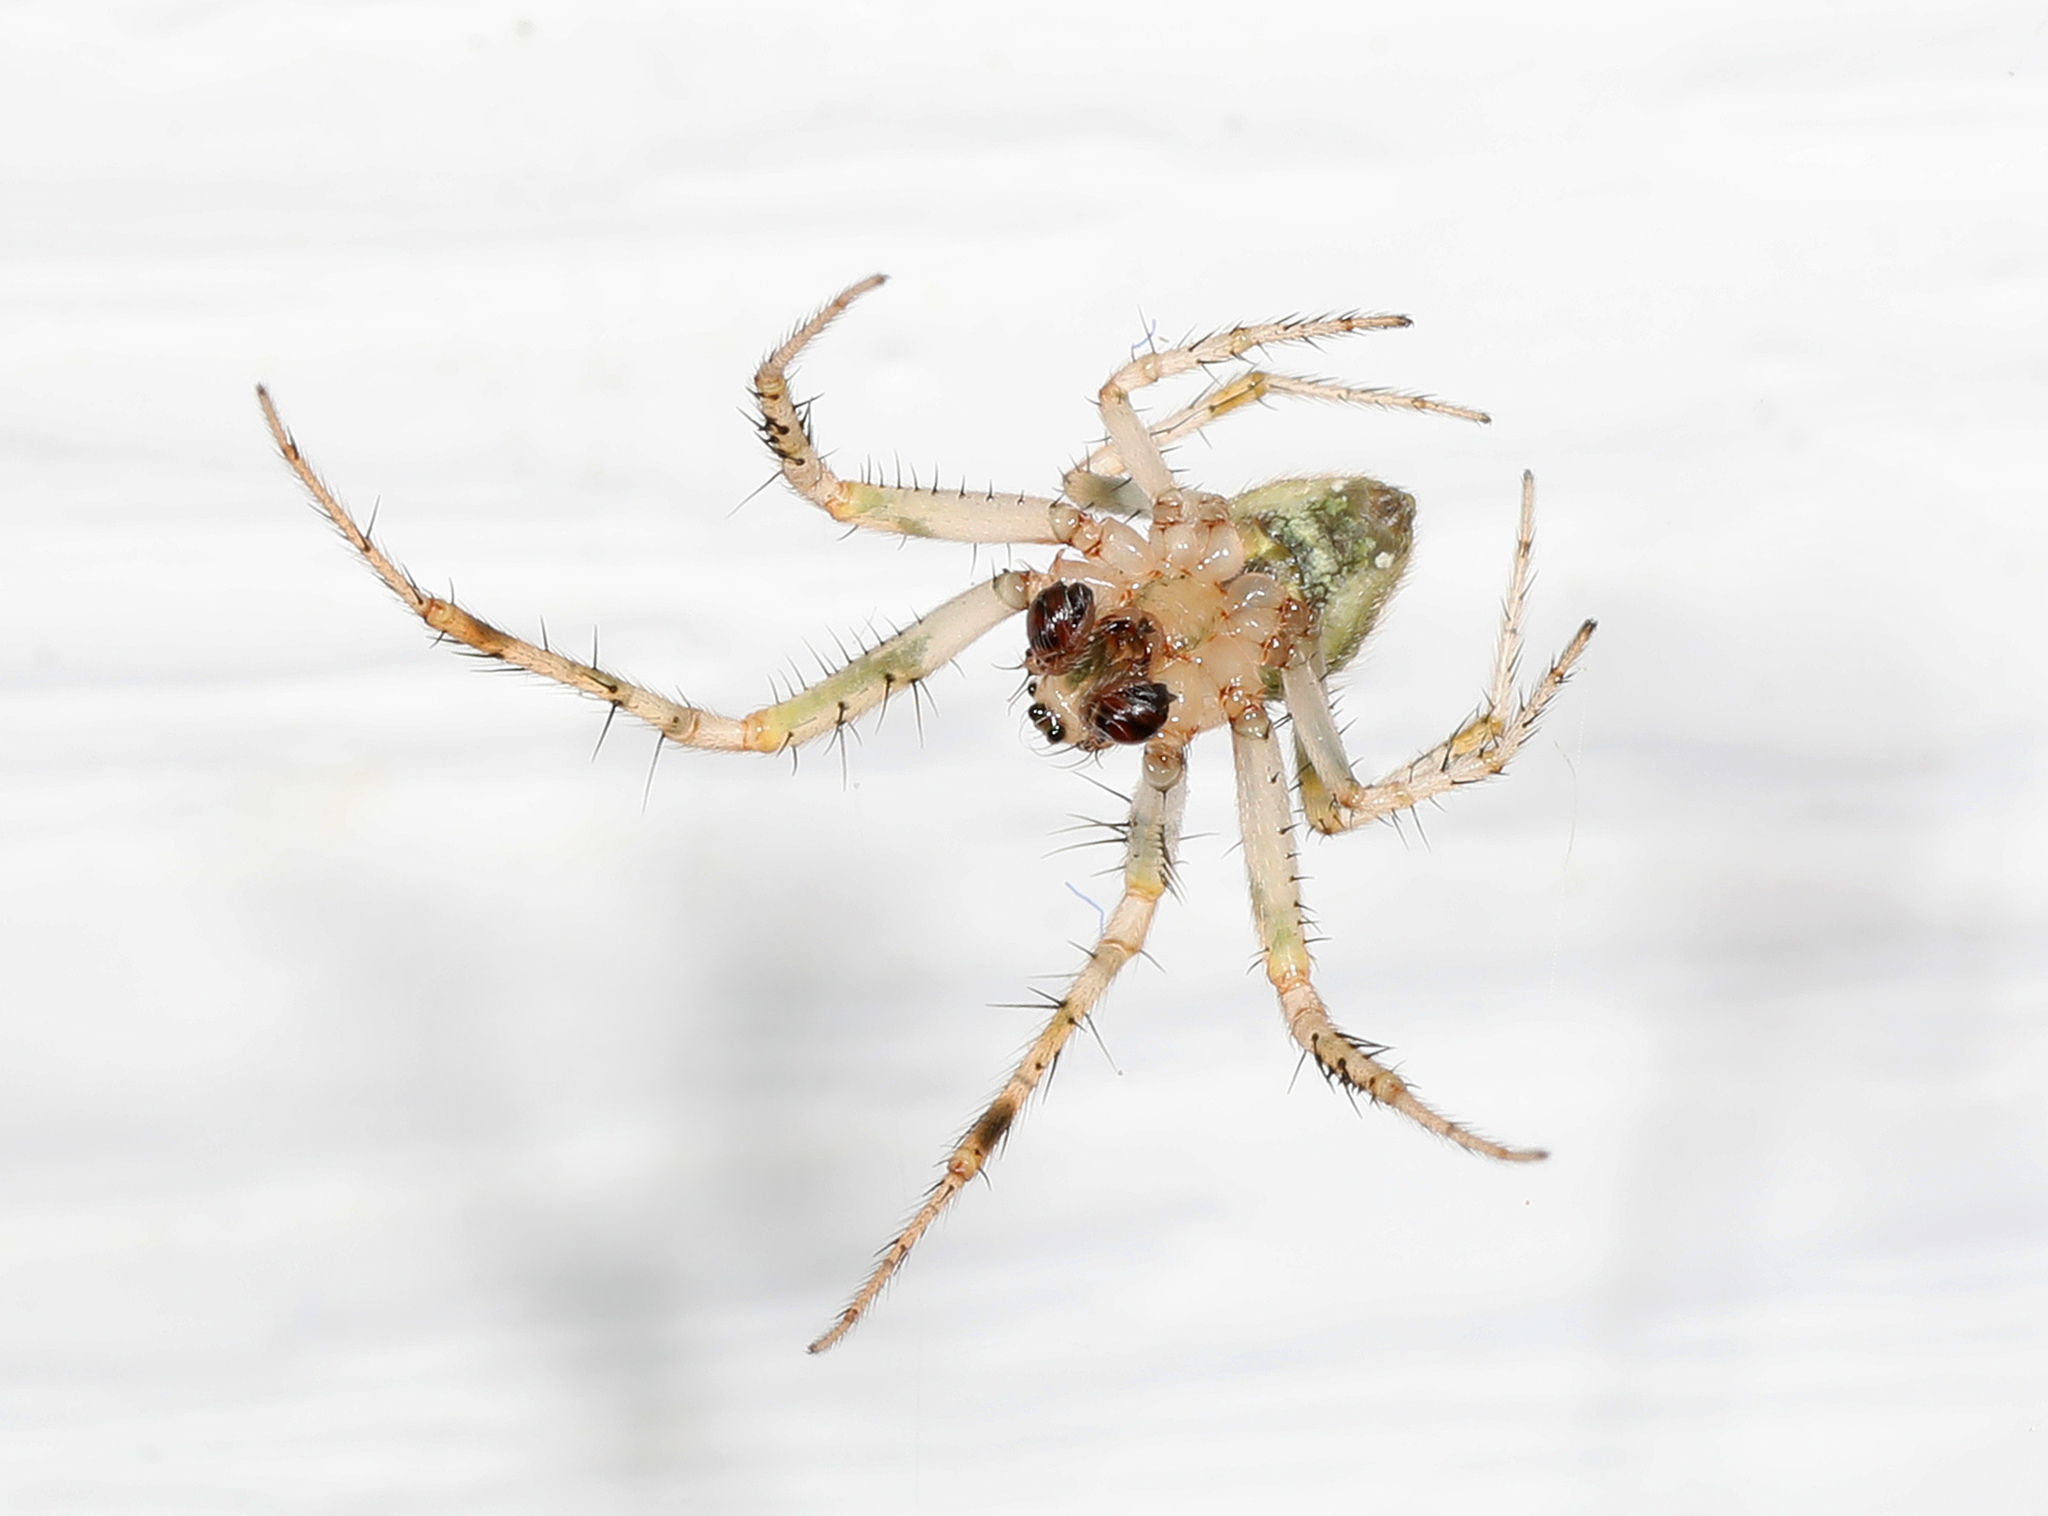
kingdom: Animalia
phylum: Arthropoda
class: Arachnida
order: Araneae
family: Araneidae
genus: Araneus
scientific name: Araneus pegnia
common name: Orb weavers
